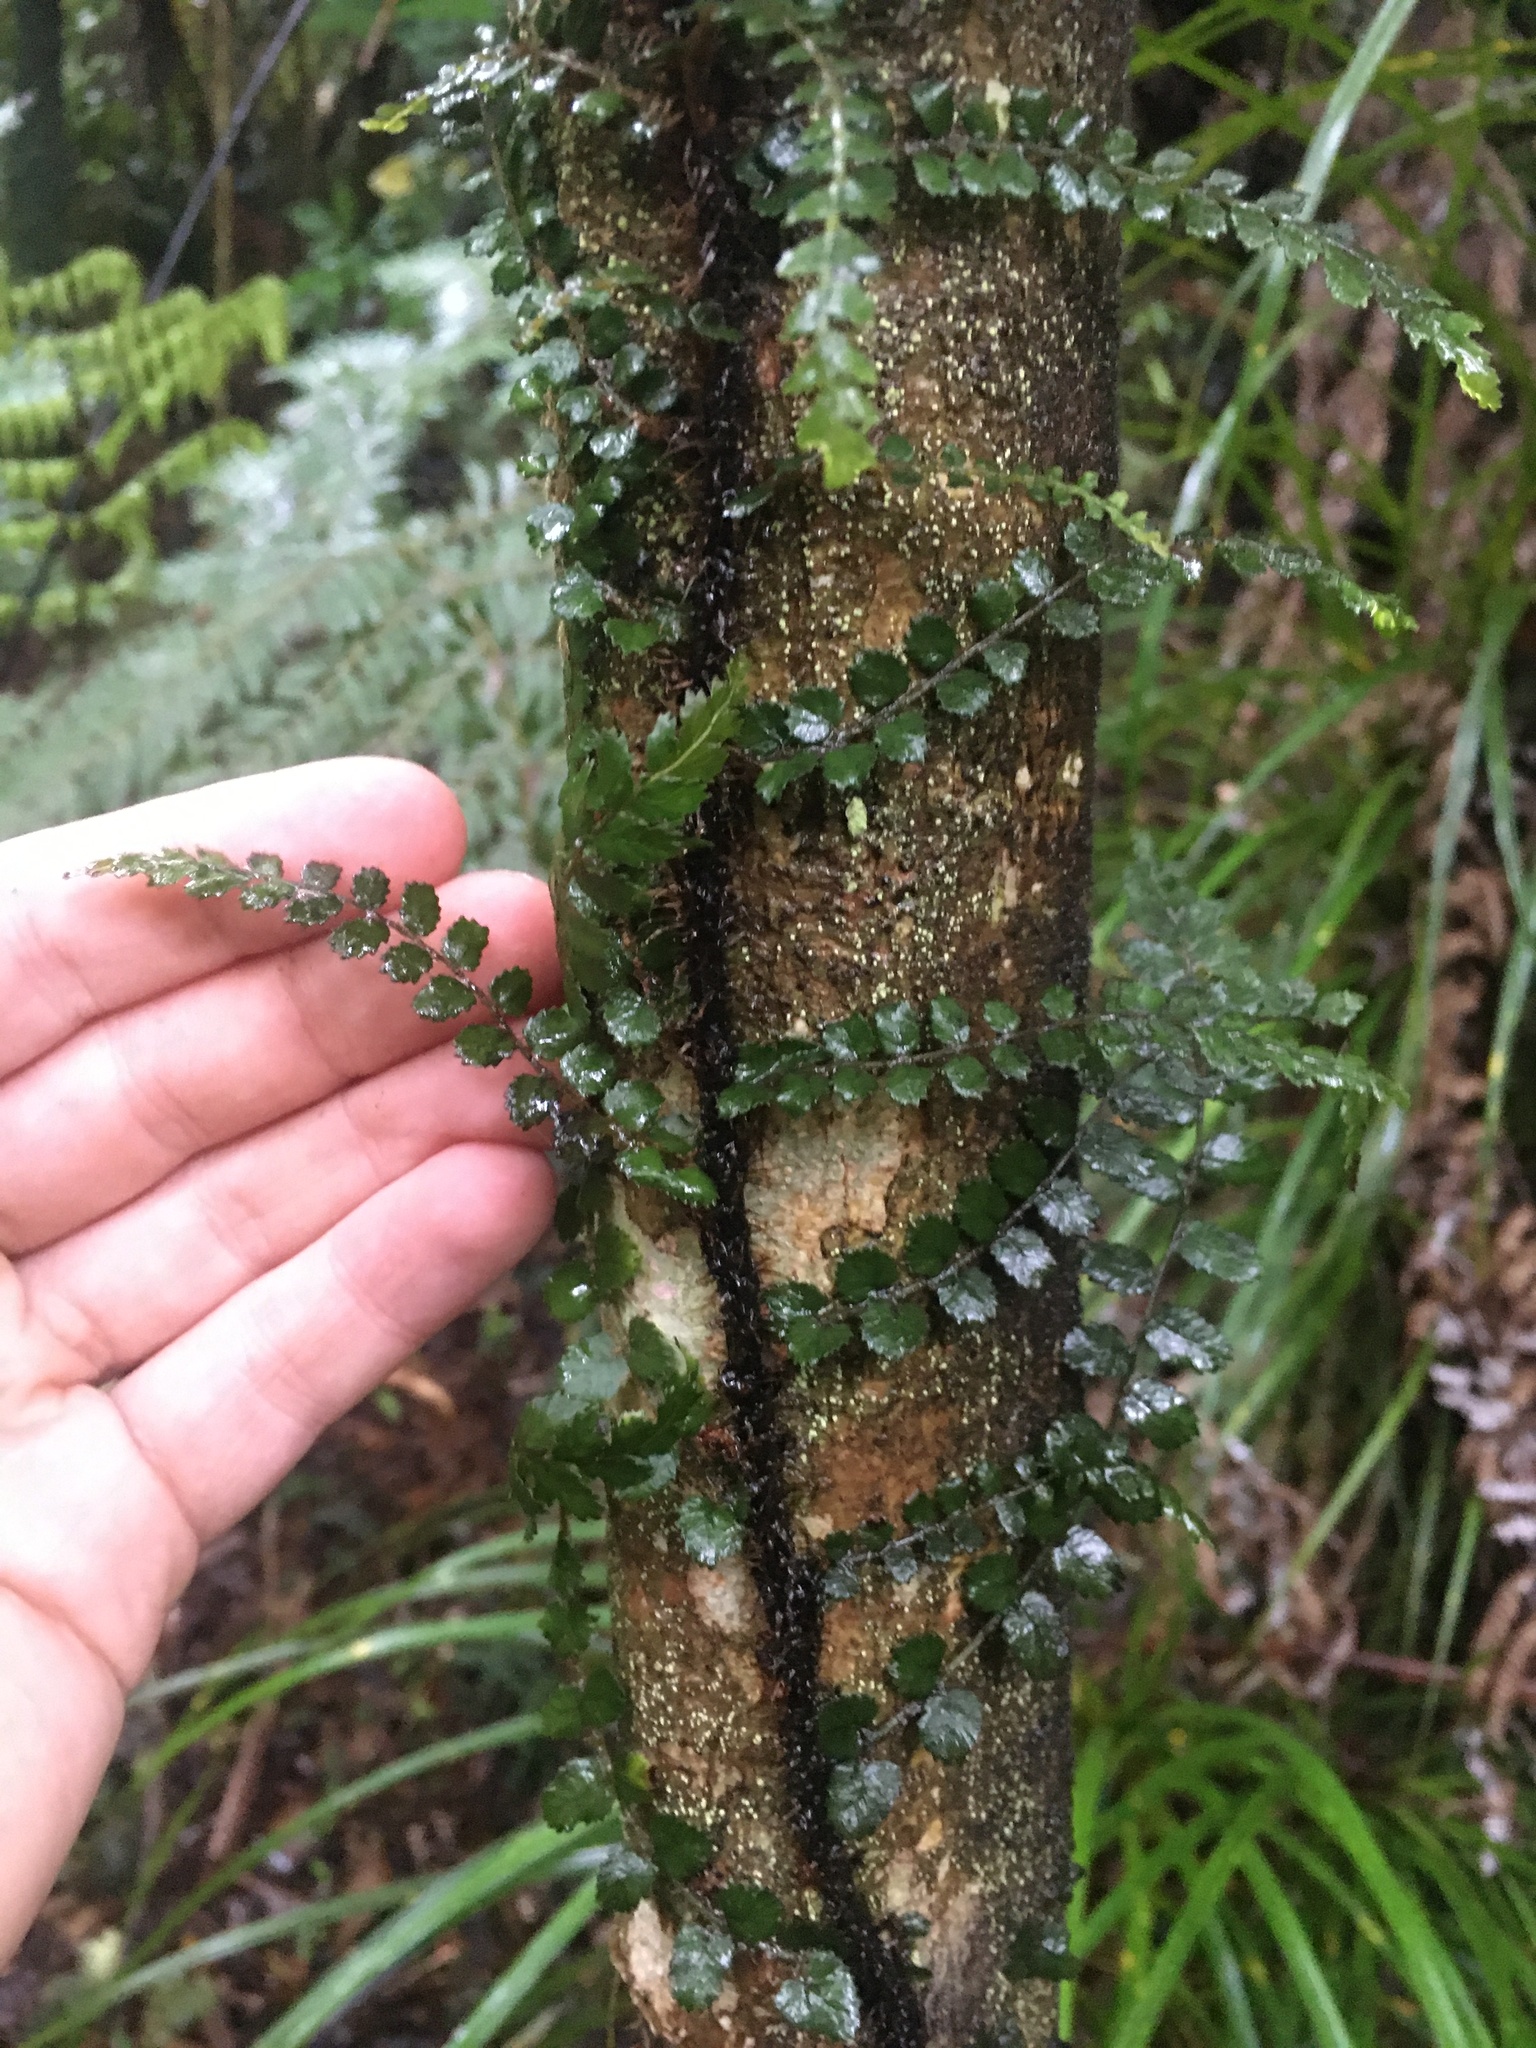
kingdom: Plantae
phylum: Tracheophyta
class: Polypodiopsida
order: Polypodiales
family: Blechnaceae
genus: Icarus
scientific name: Icarus filiformis
